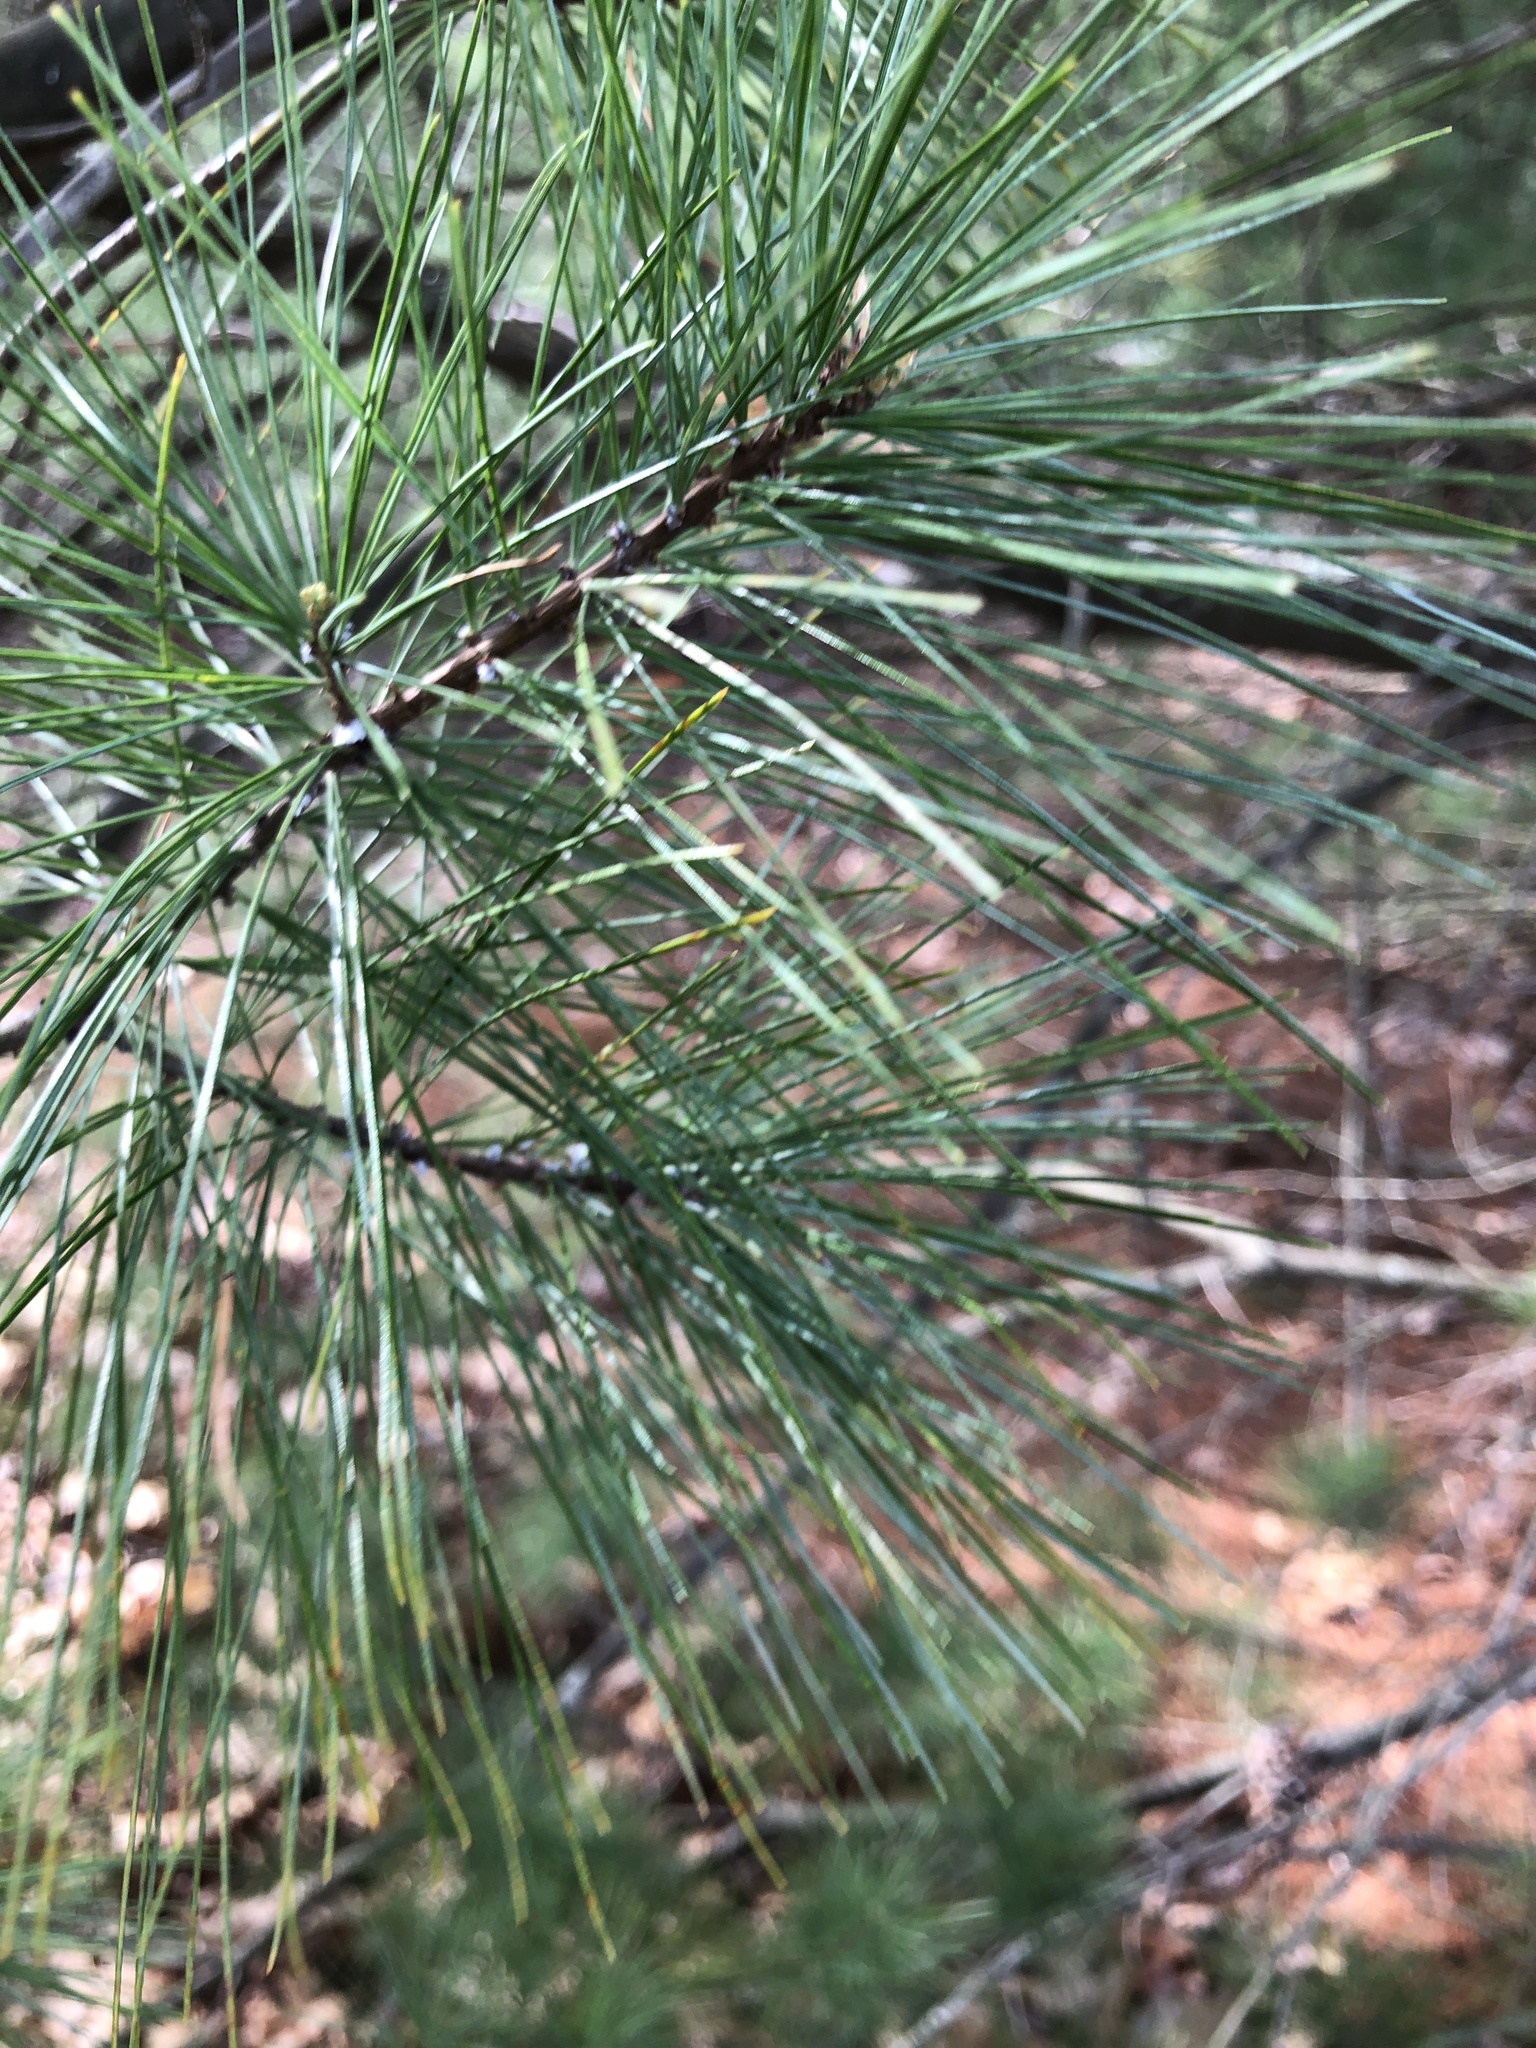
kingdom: Plantae
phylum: Tracheophyta
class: Pinopsida
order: Pinales
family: Pinaceae
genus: Pinus
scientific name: Pinus strobus
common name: Weymouth pine
